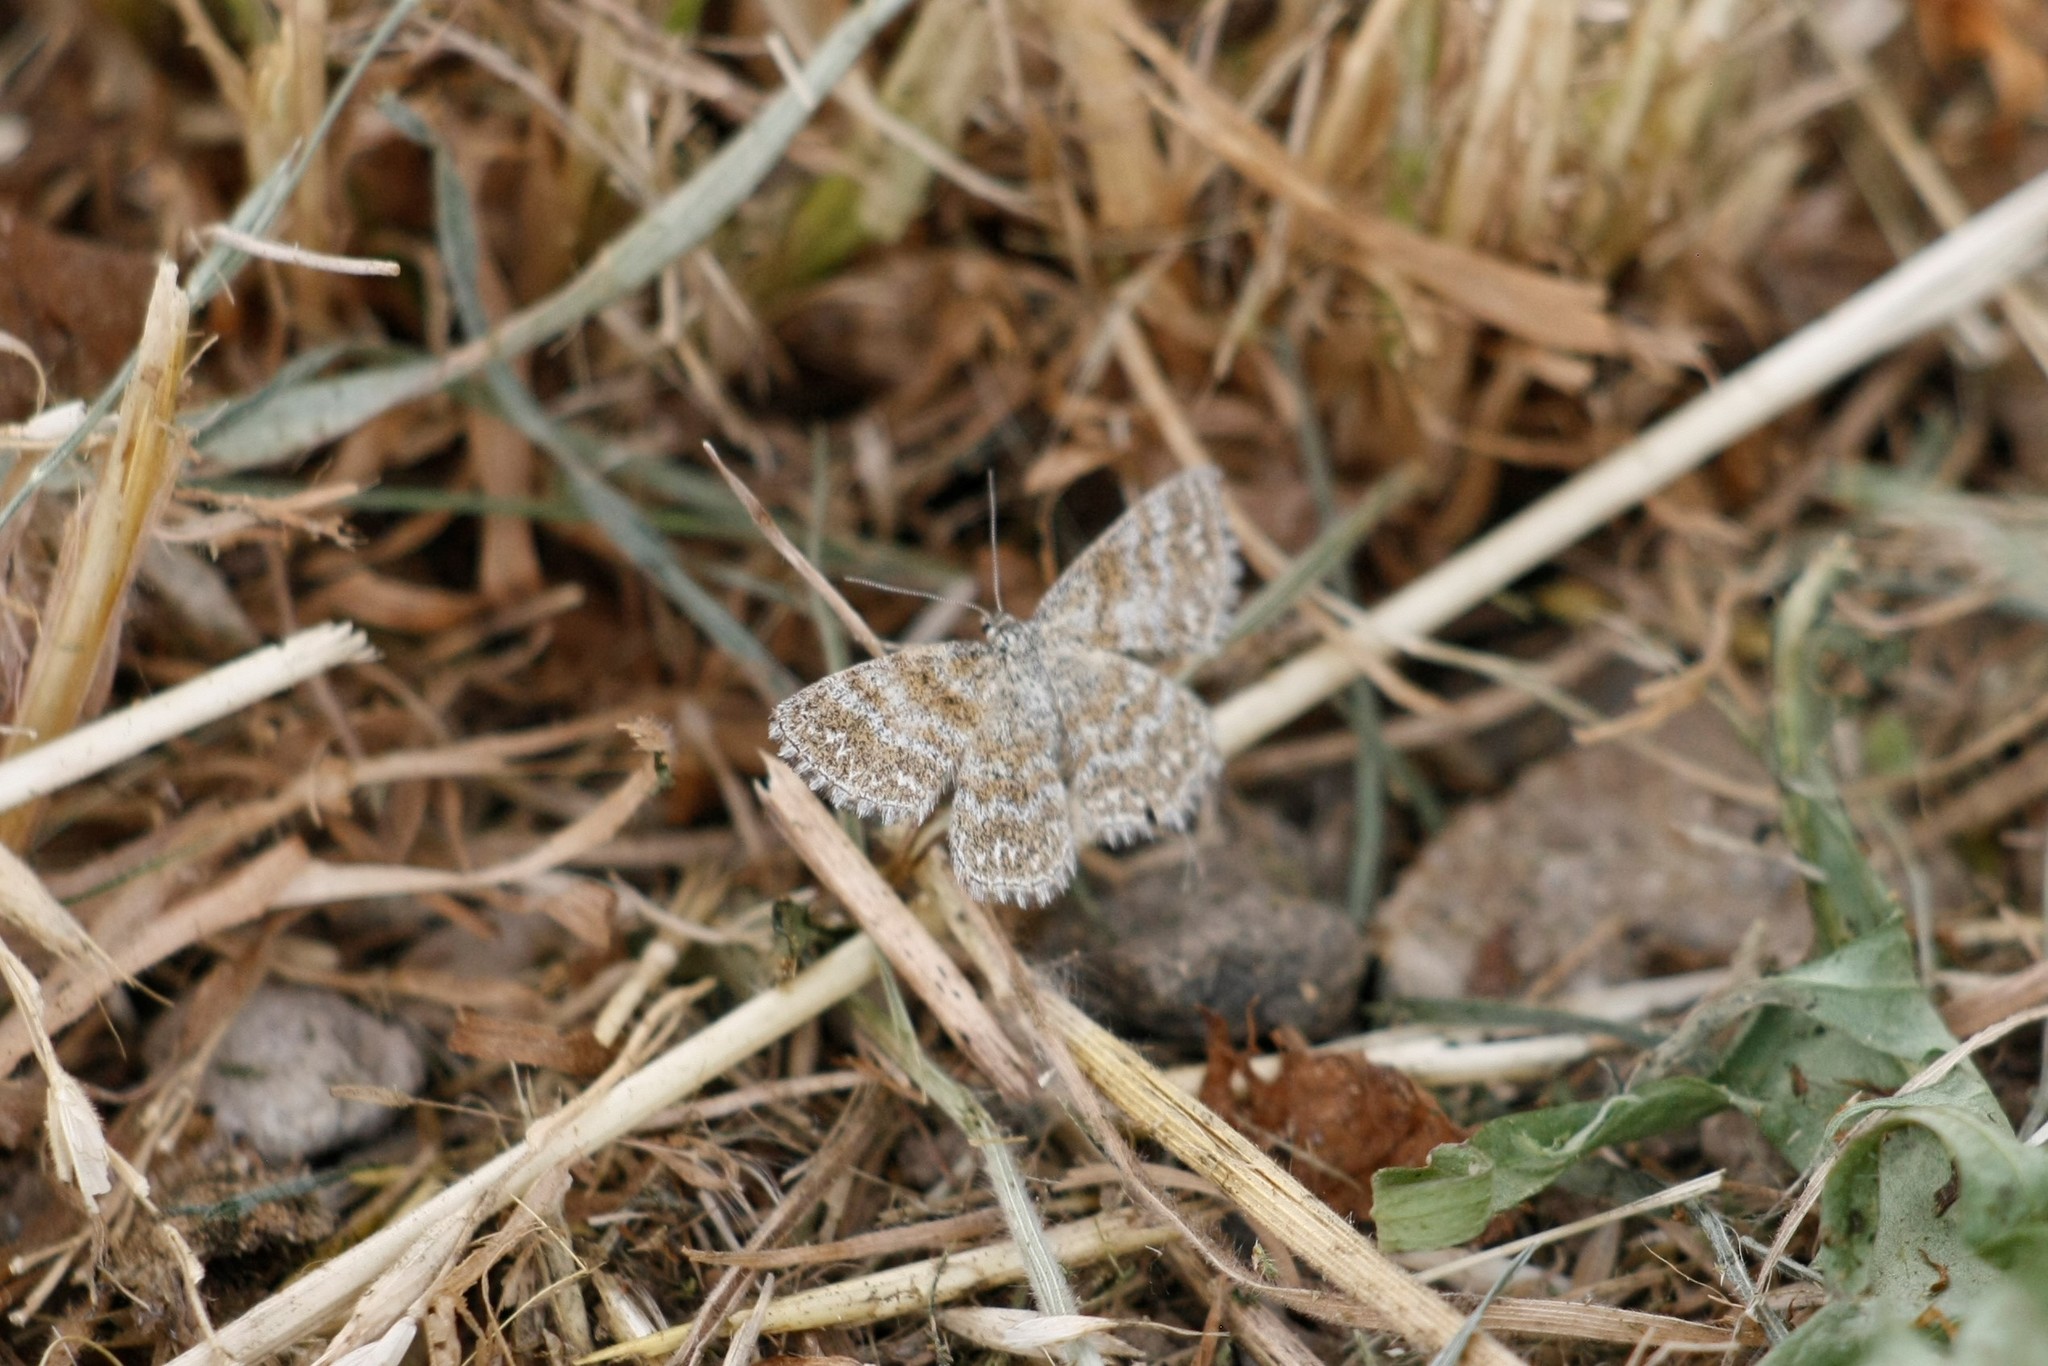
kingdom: Animalia
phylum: Arthropoda
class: Insecta
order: Lepidoptera
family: Geometridae
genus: Scopula
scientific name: Scopula immorata
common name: Lewes wave
